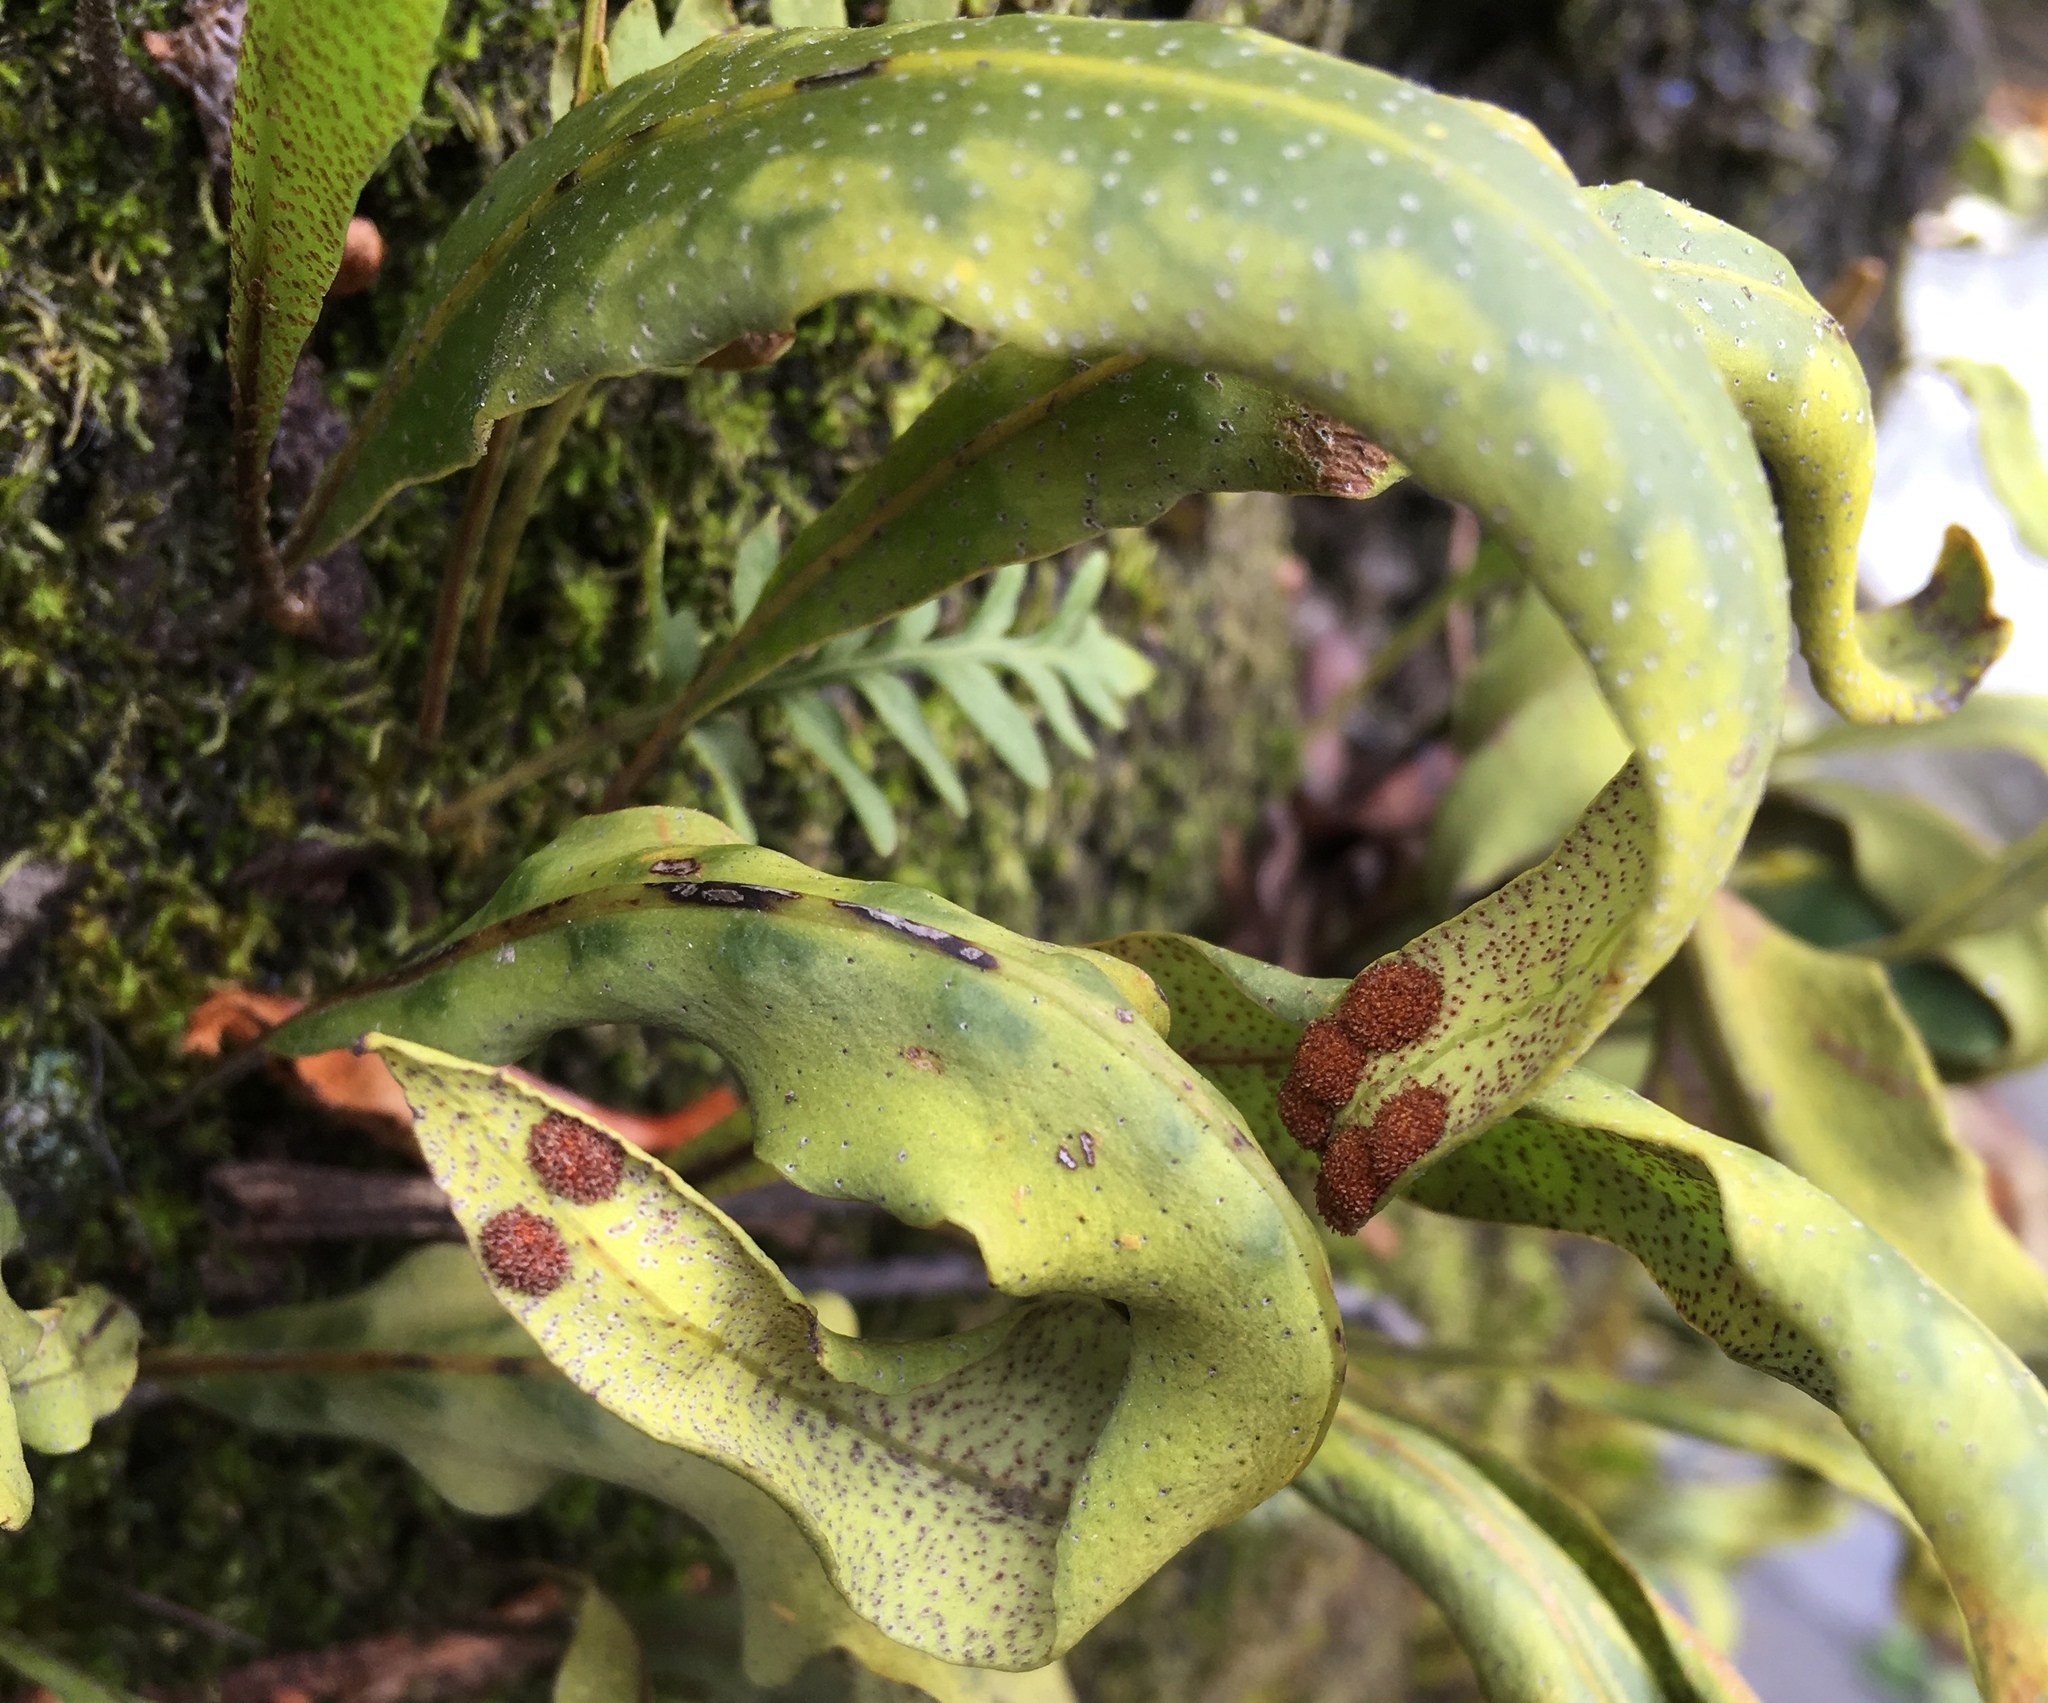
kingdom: Plantae
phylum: Tracheophyta
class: Polypodiopsida
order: Polypodiales
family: Polypodiaceae
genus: Pleopeltis
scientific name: Pleopeltis macrocarpa
